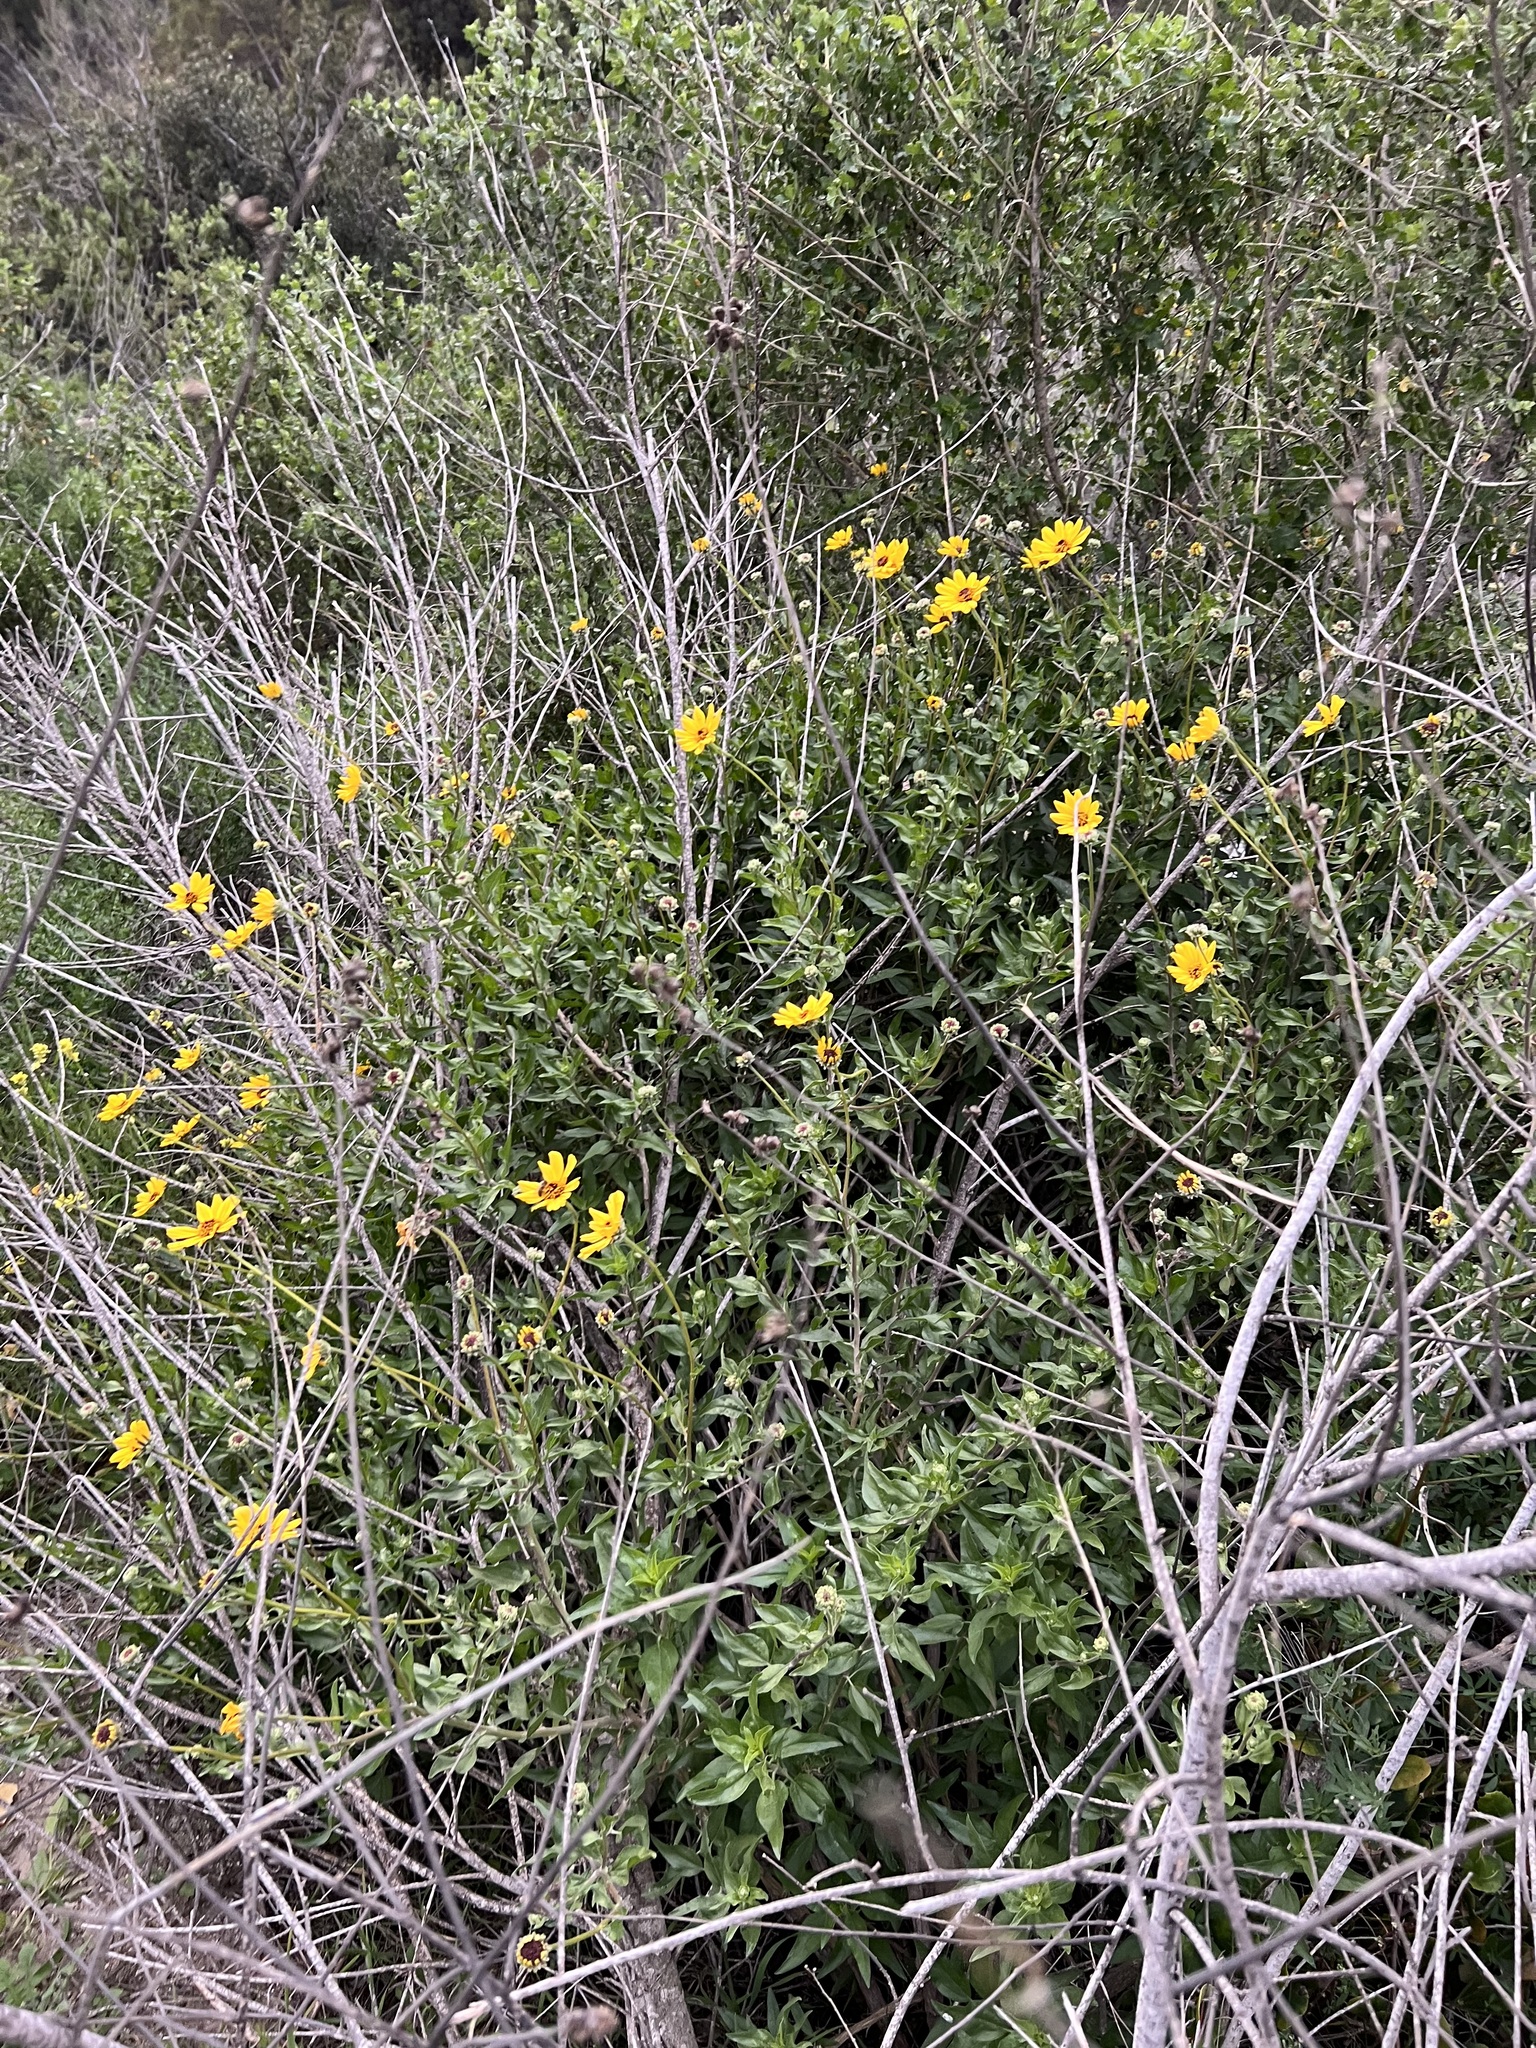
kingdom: Plantae
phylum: Tracheophyta
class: Magnoliopsida
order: Asterales
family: Asteraceae
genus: Encelia
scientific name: Encelia californica
